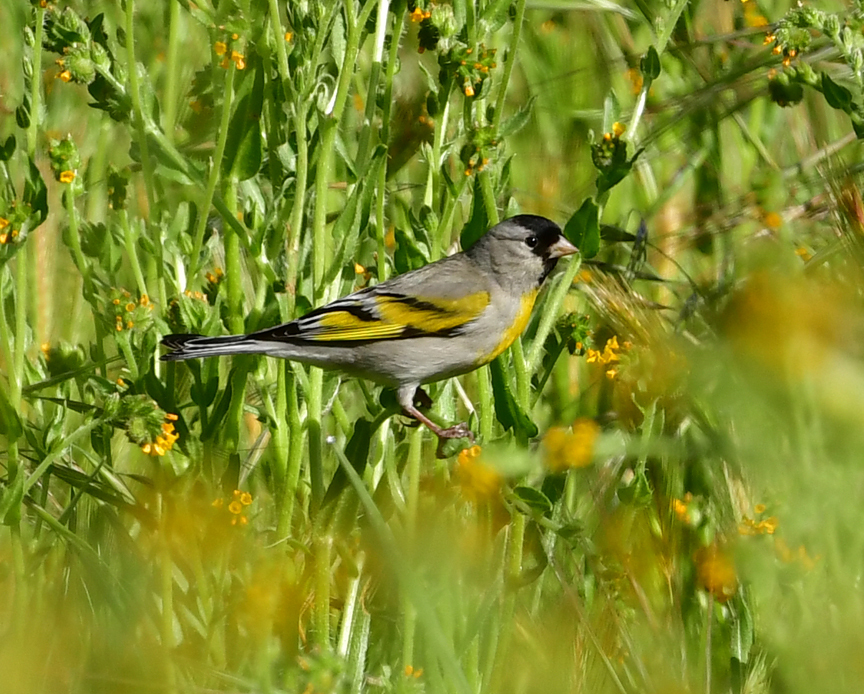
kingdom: Animalia
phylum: Chordata
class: Aves
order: Passeriformes
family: Fringillidae
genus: Spinus
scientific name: Spinus lawrencei
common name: Lawrence's goldfinch
